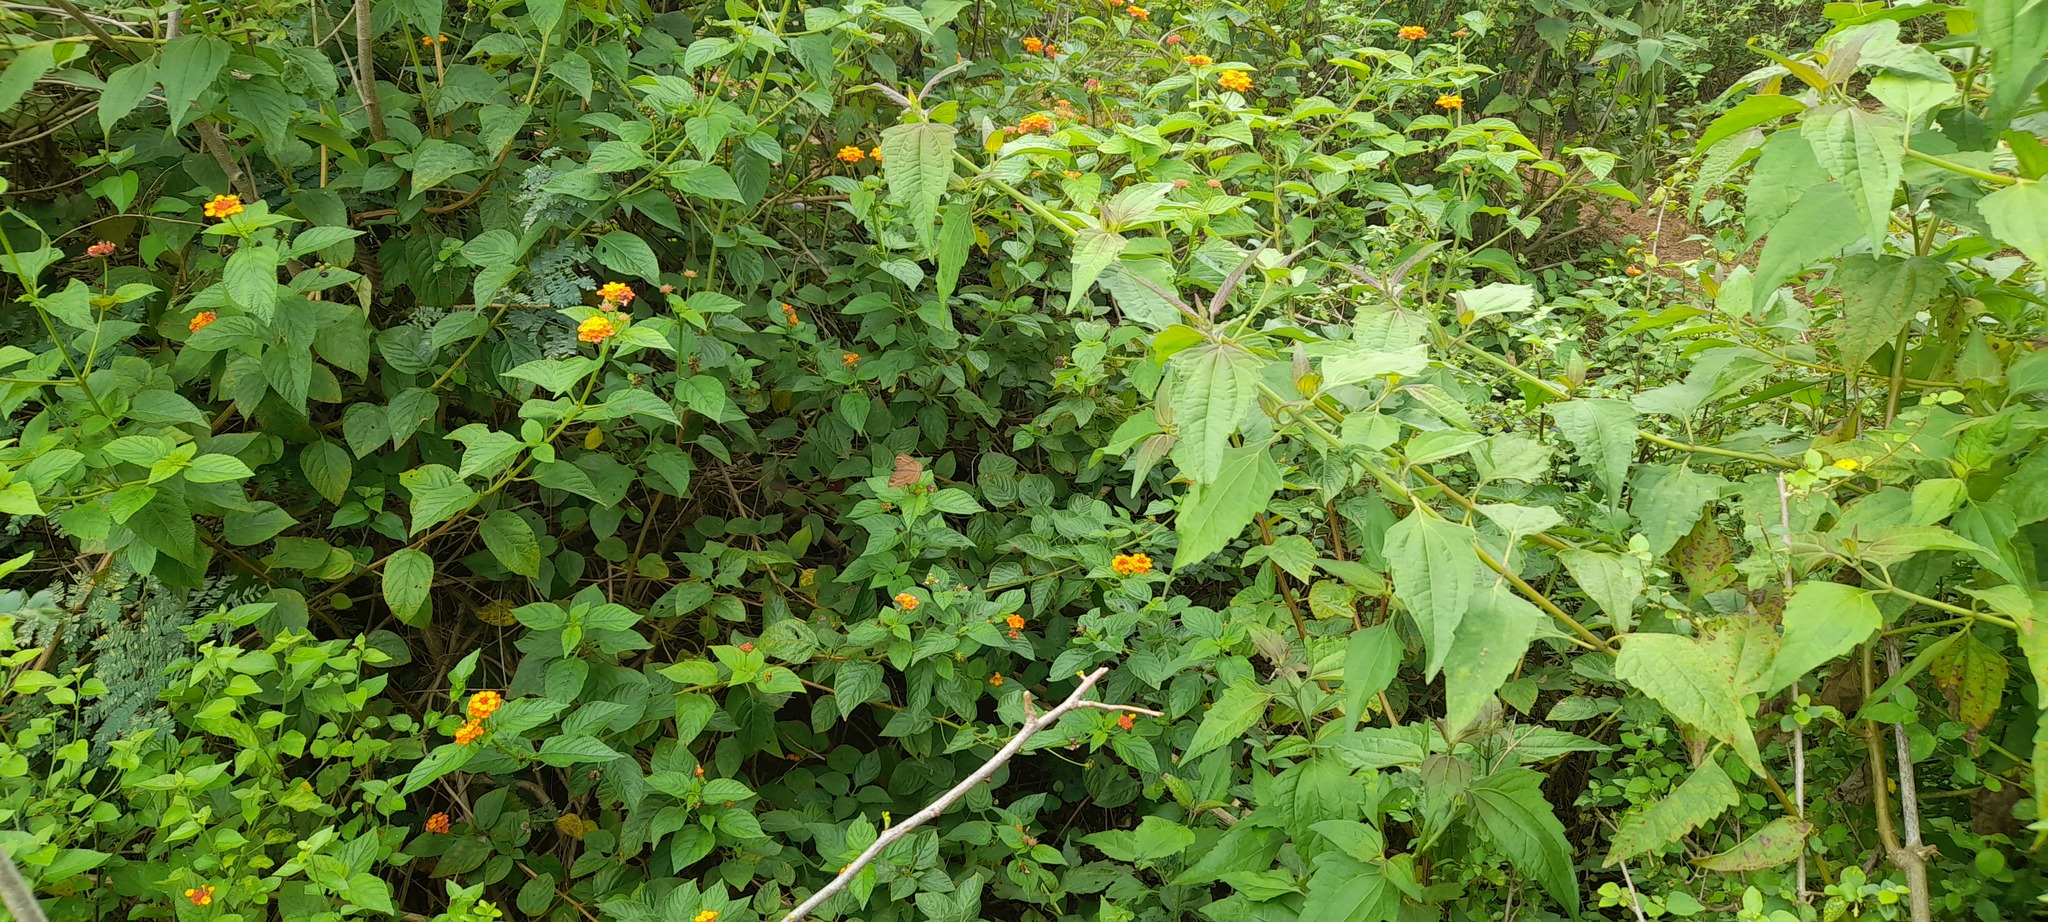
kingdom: Plantae
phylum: Tracheophyta
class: Magnoliopsida
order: Asterales
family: Asteraceae
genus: Chromolaena
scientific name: Chromolaena odorata
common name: Siamweed
